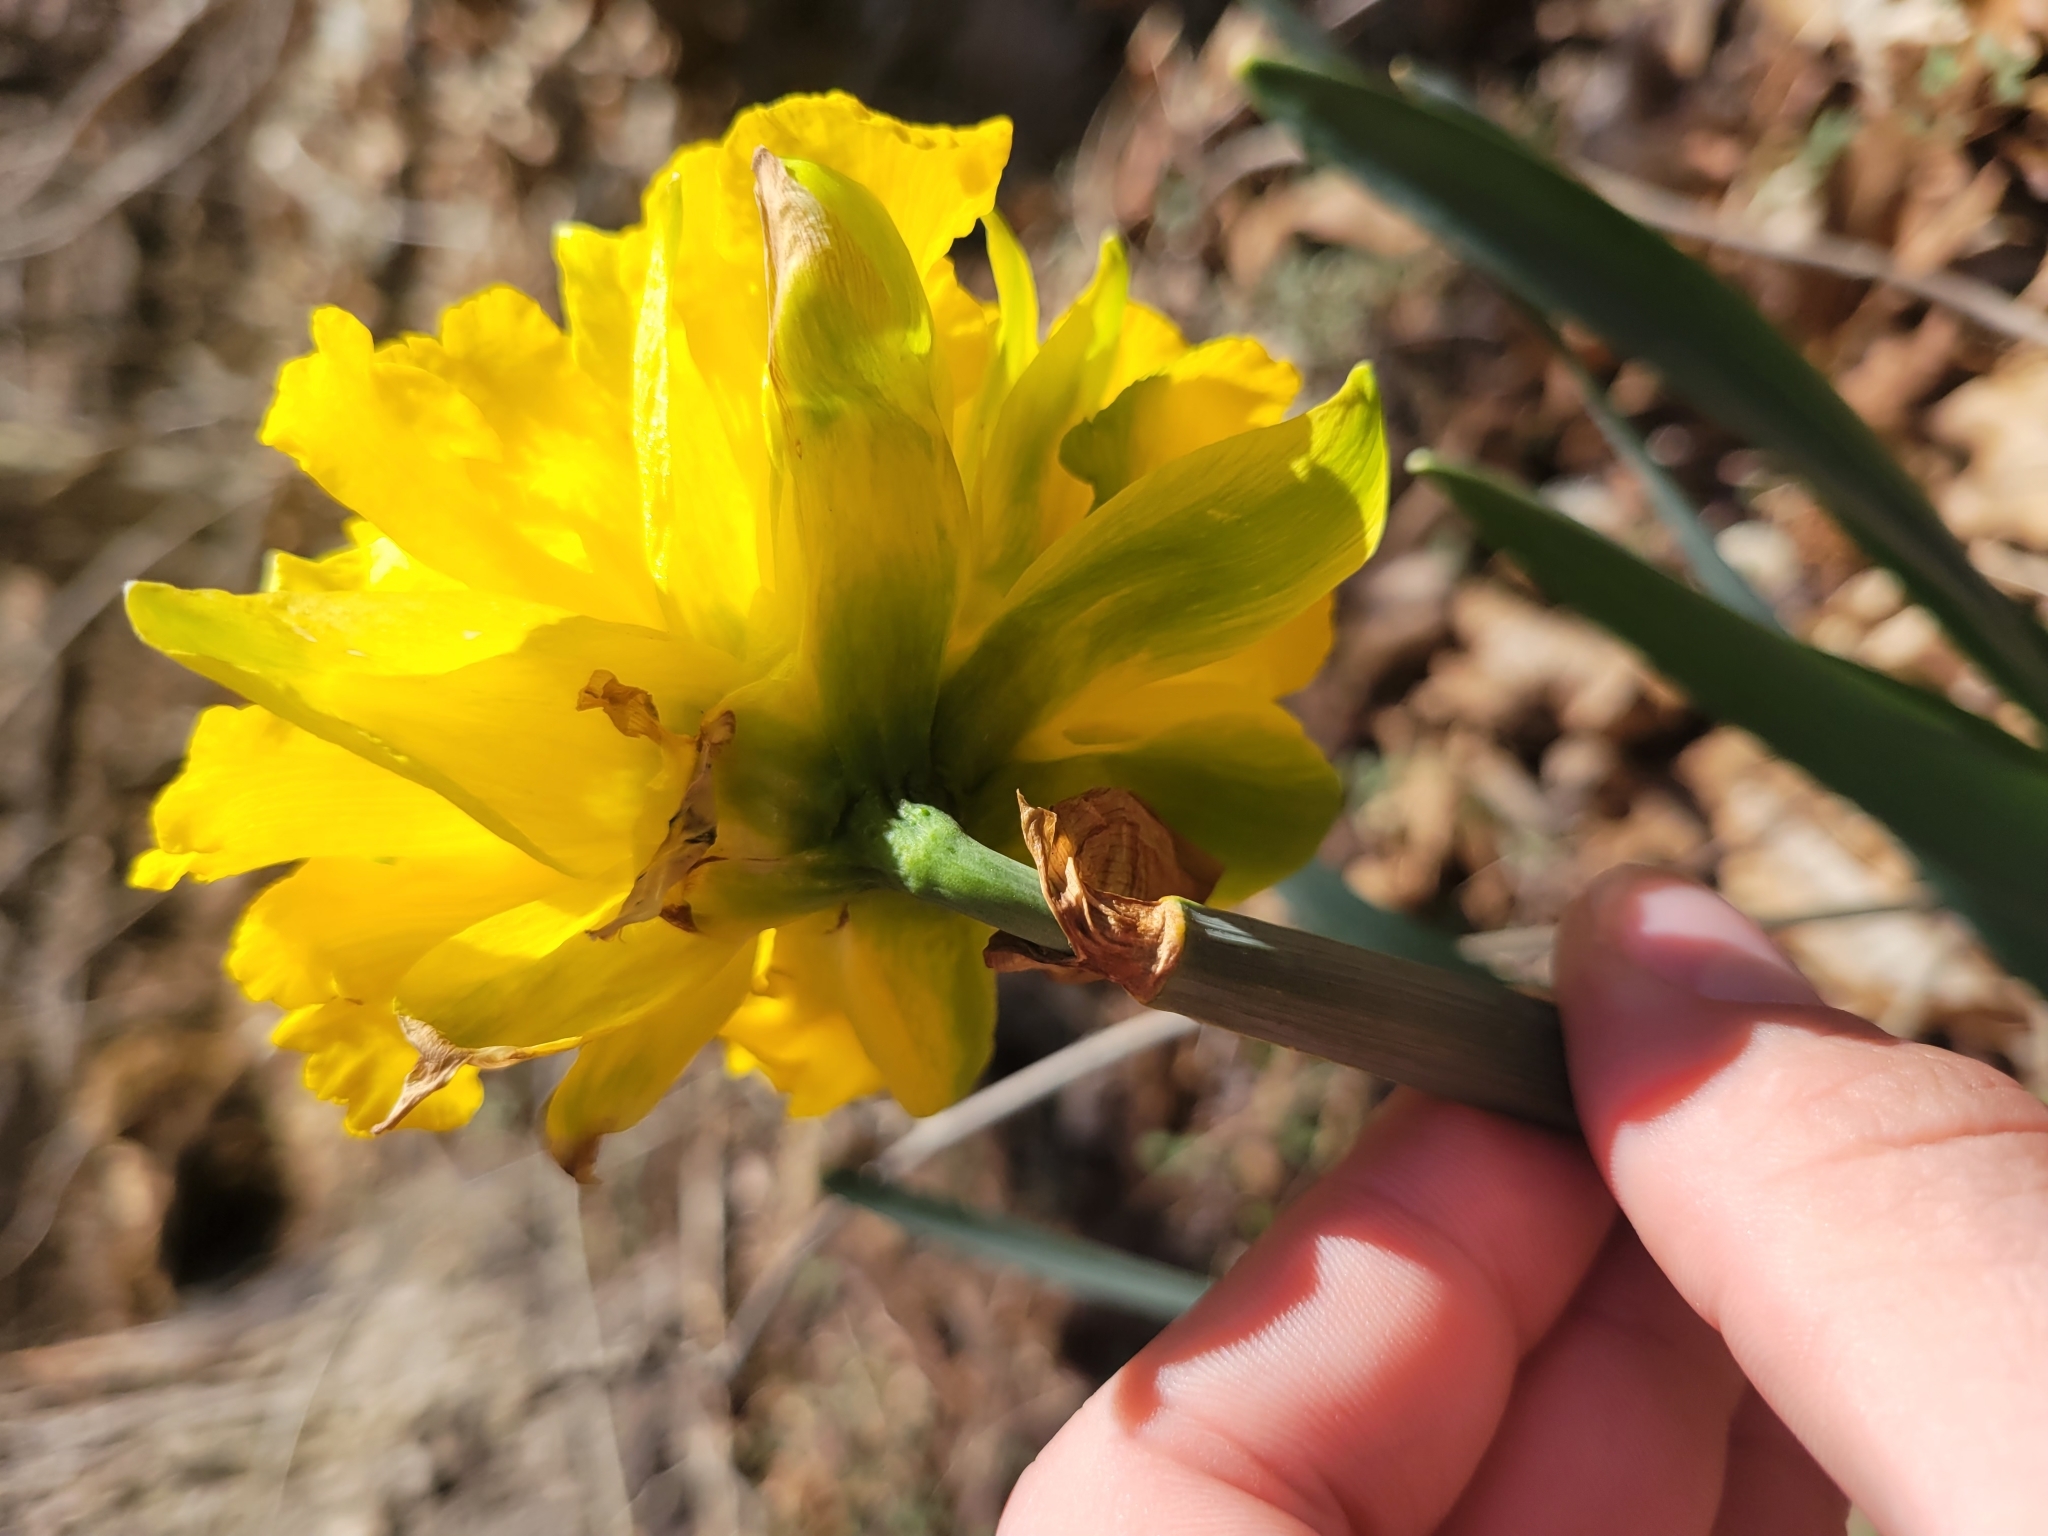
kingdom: Plantae
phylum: Tracheophyta
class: Liliopsida
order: Asparagales
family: Amaryllidaceae
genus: Narcissus
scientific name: Narcissus
